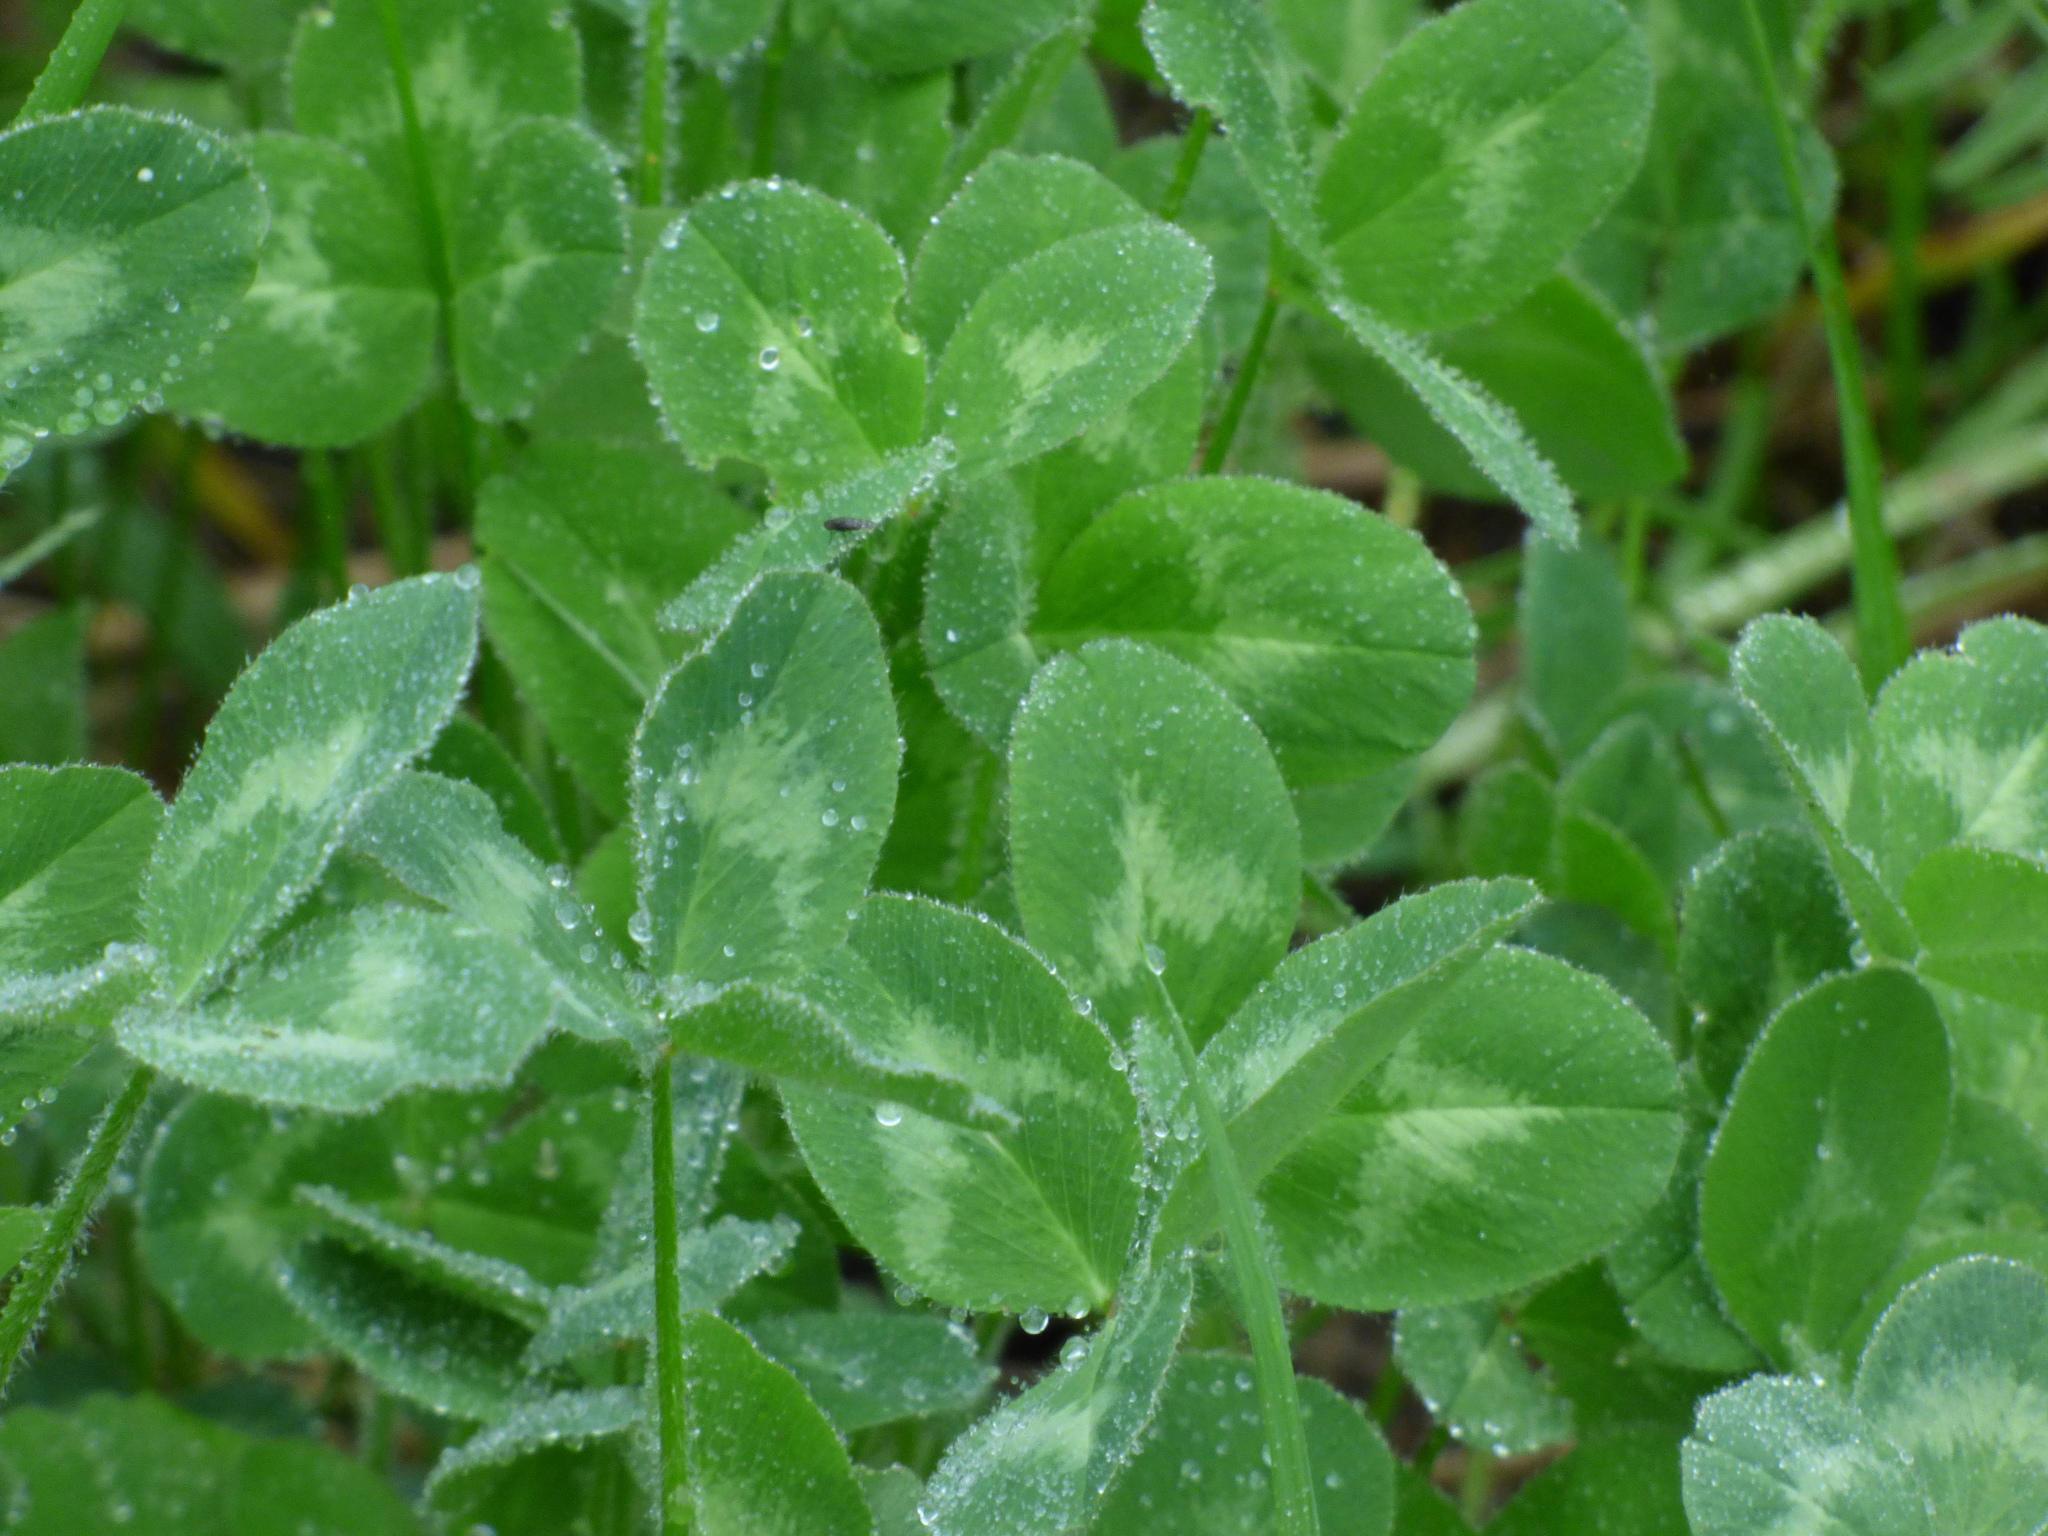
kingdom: Plantae
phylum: Tracheophyta
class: Magnoliopsida
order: Fabales
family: Fabaceae
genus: Trifolium
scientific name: Trifolium pratense
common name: Red clover
